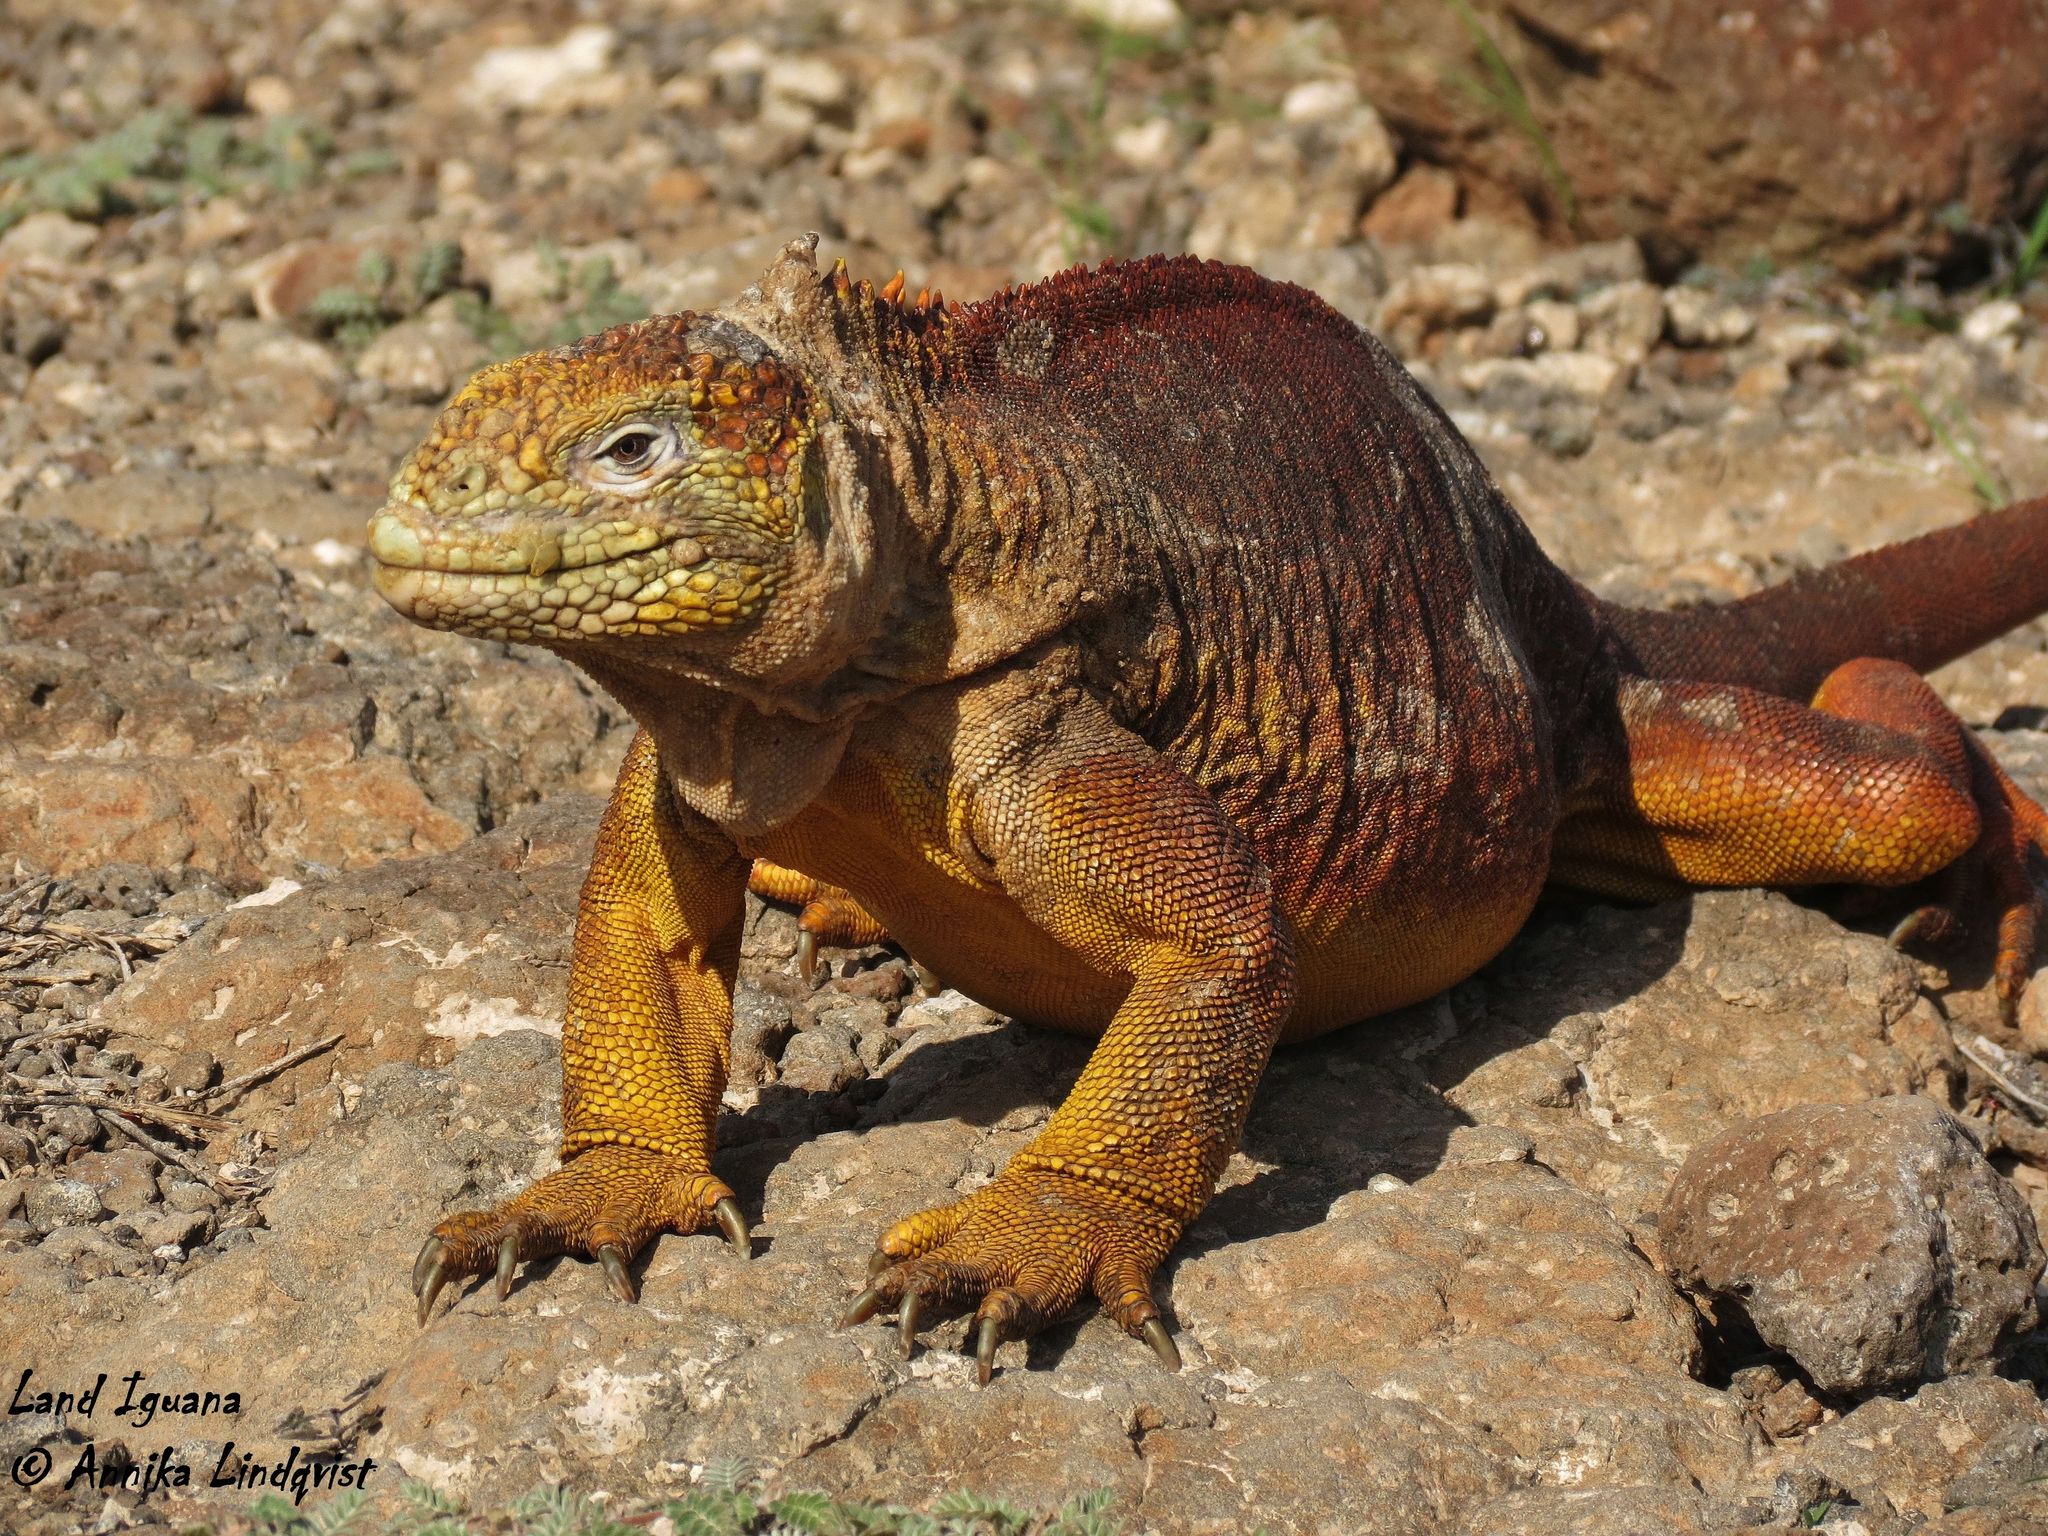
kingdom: Animalia
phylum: Chordata
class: Squamata
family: Iguanidae
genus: Conolophus
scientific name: Conolophus subcristatus
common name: Galapagos land iguana
